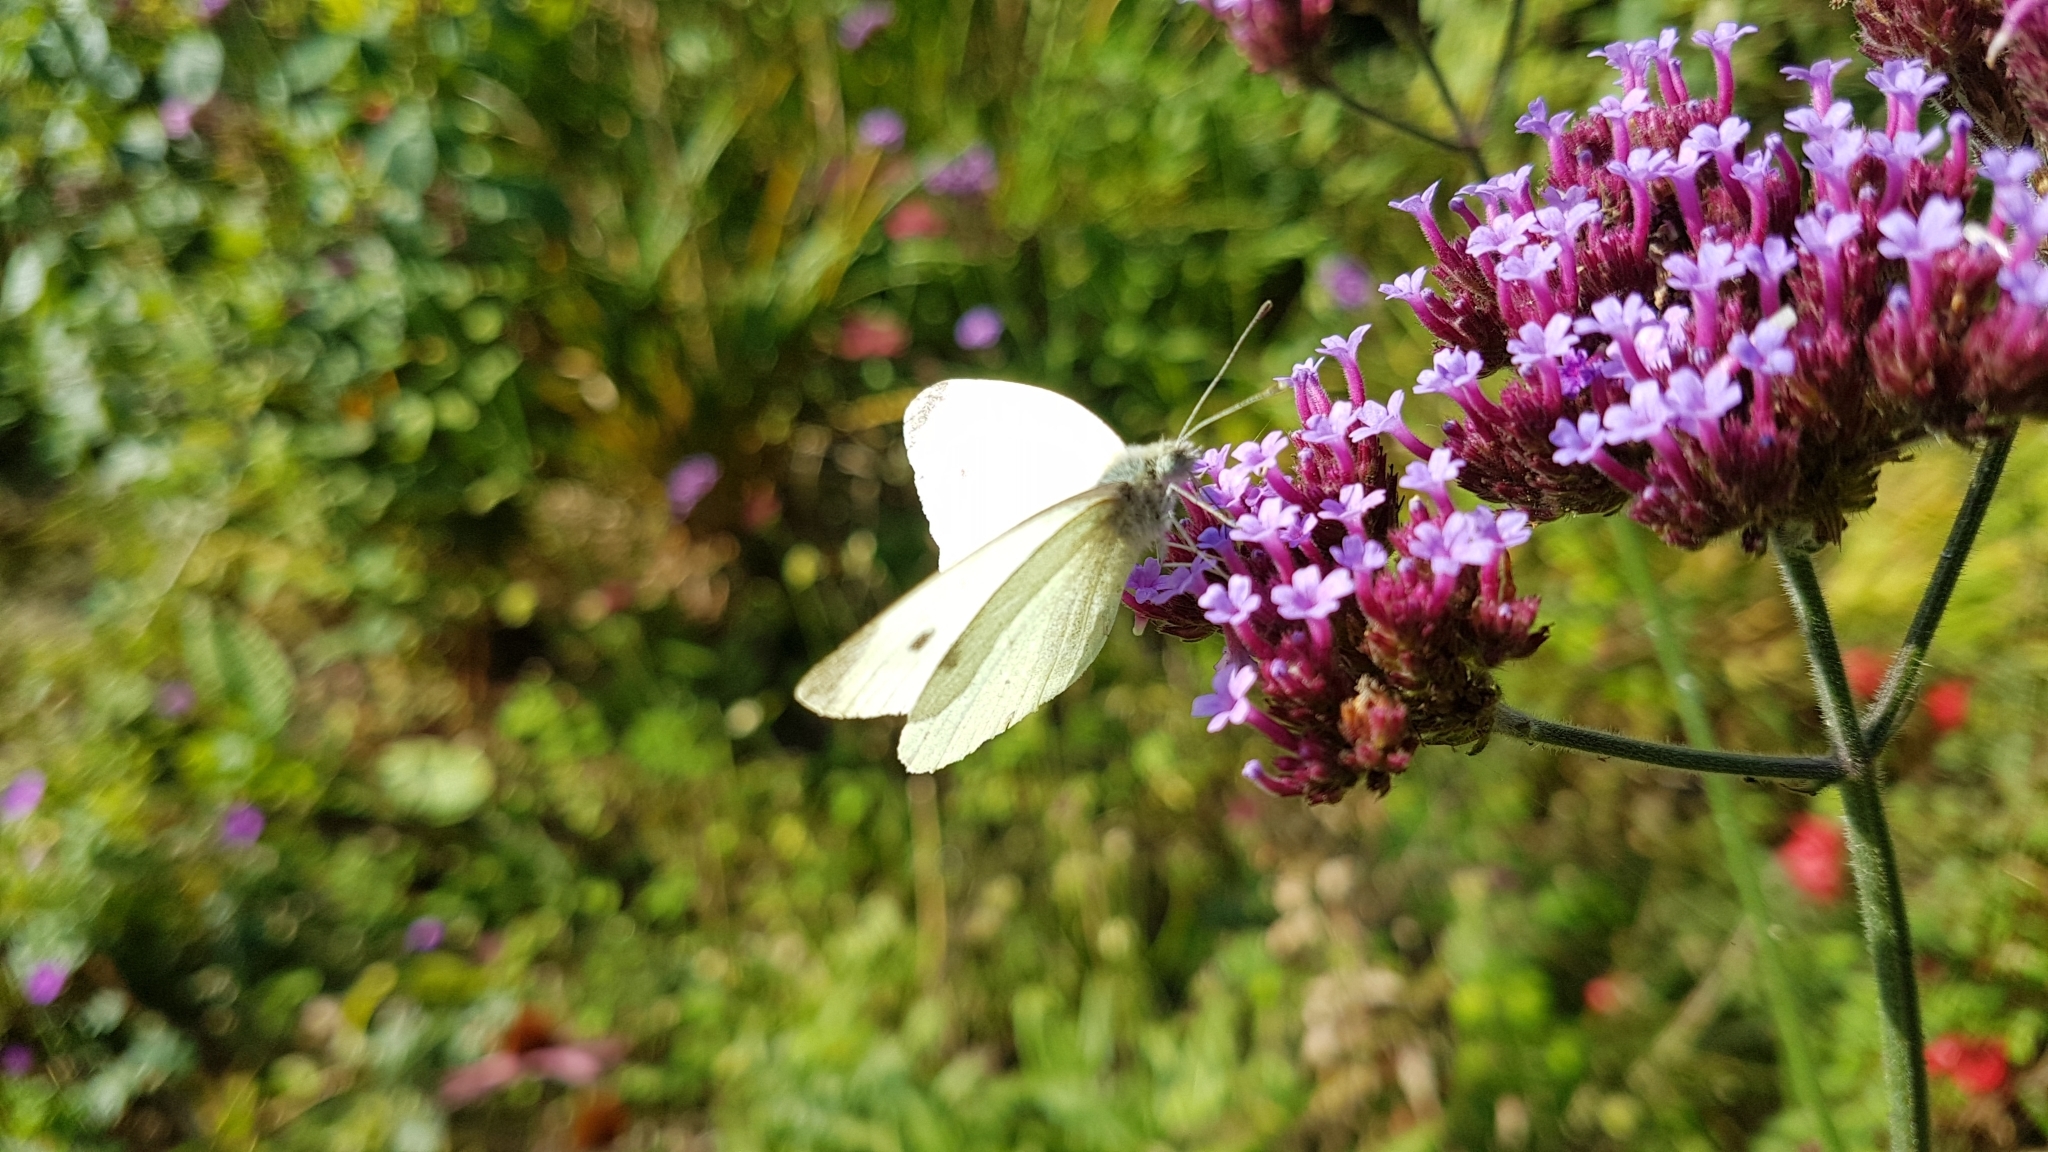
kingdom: Animalia
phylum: Arthropoda
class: Insecta
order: Lepidoptera
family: Pieridae
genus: Pieris
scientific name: Pieris rapae
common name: Small white
